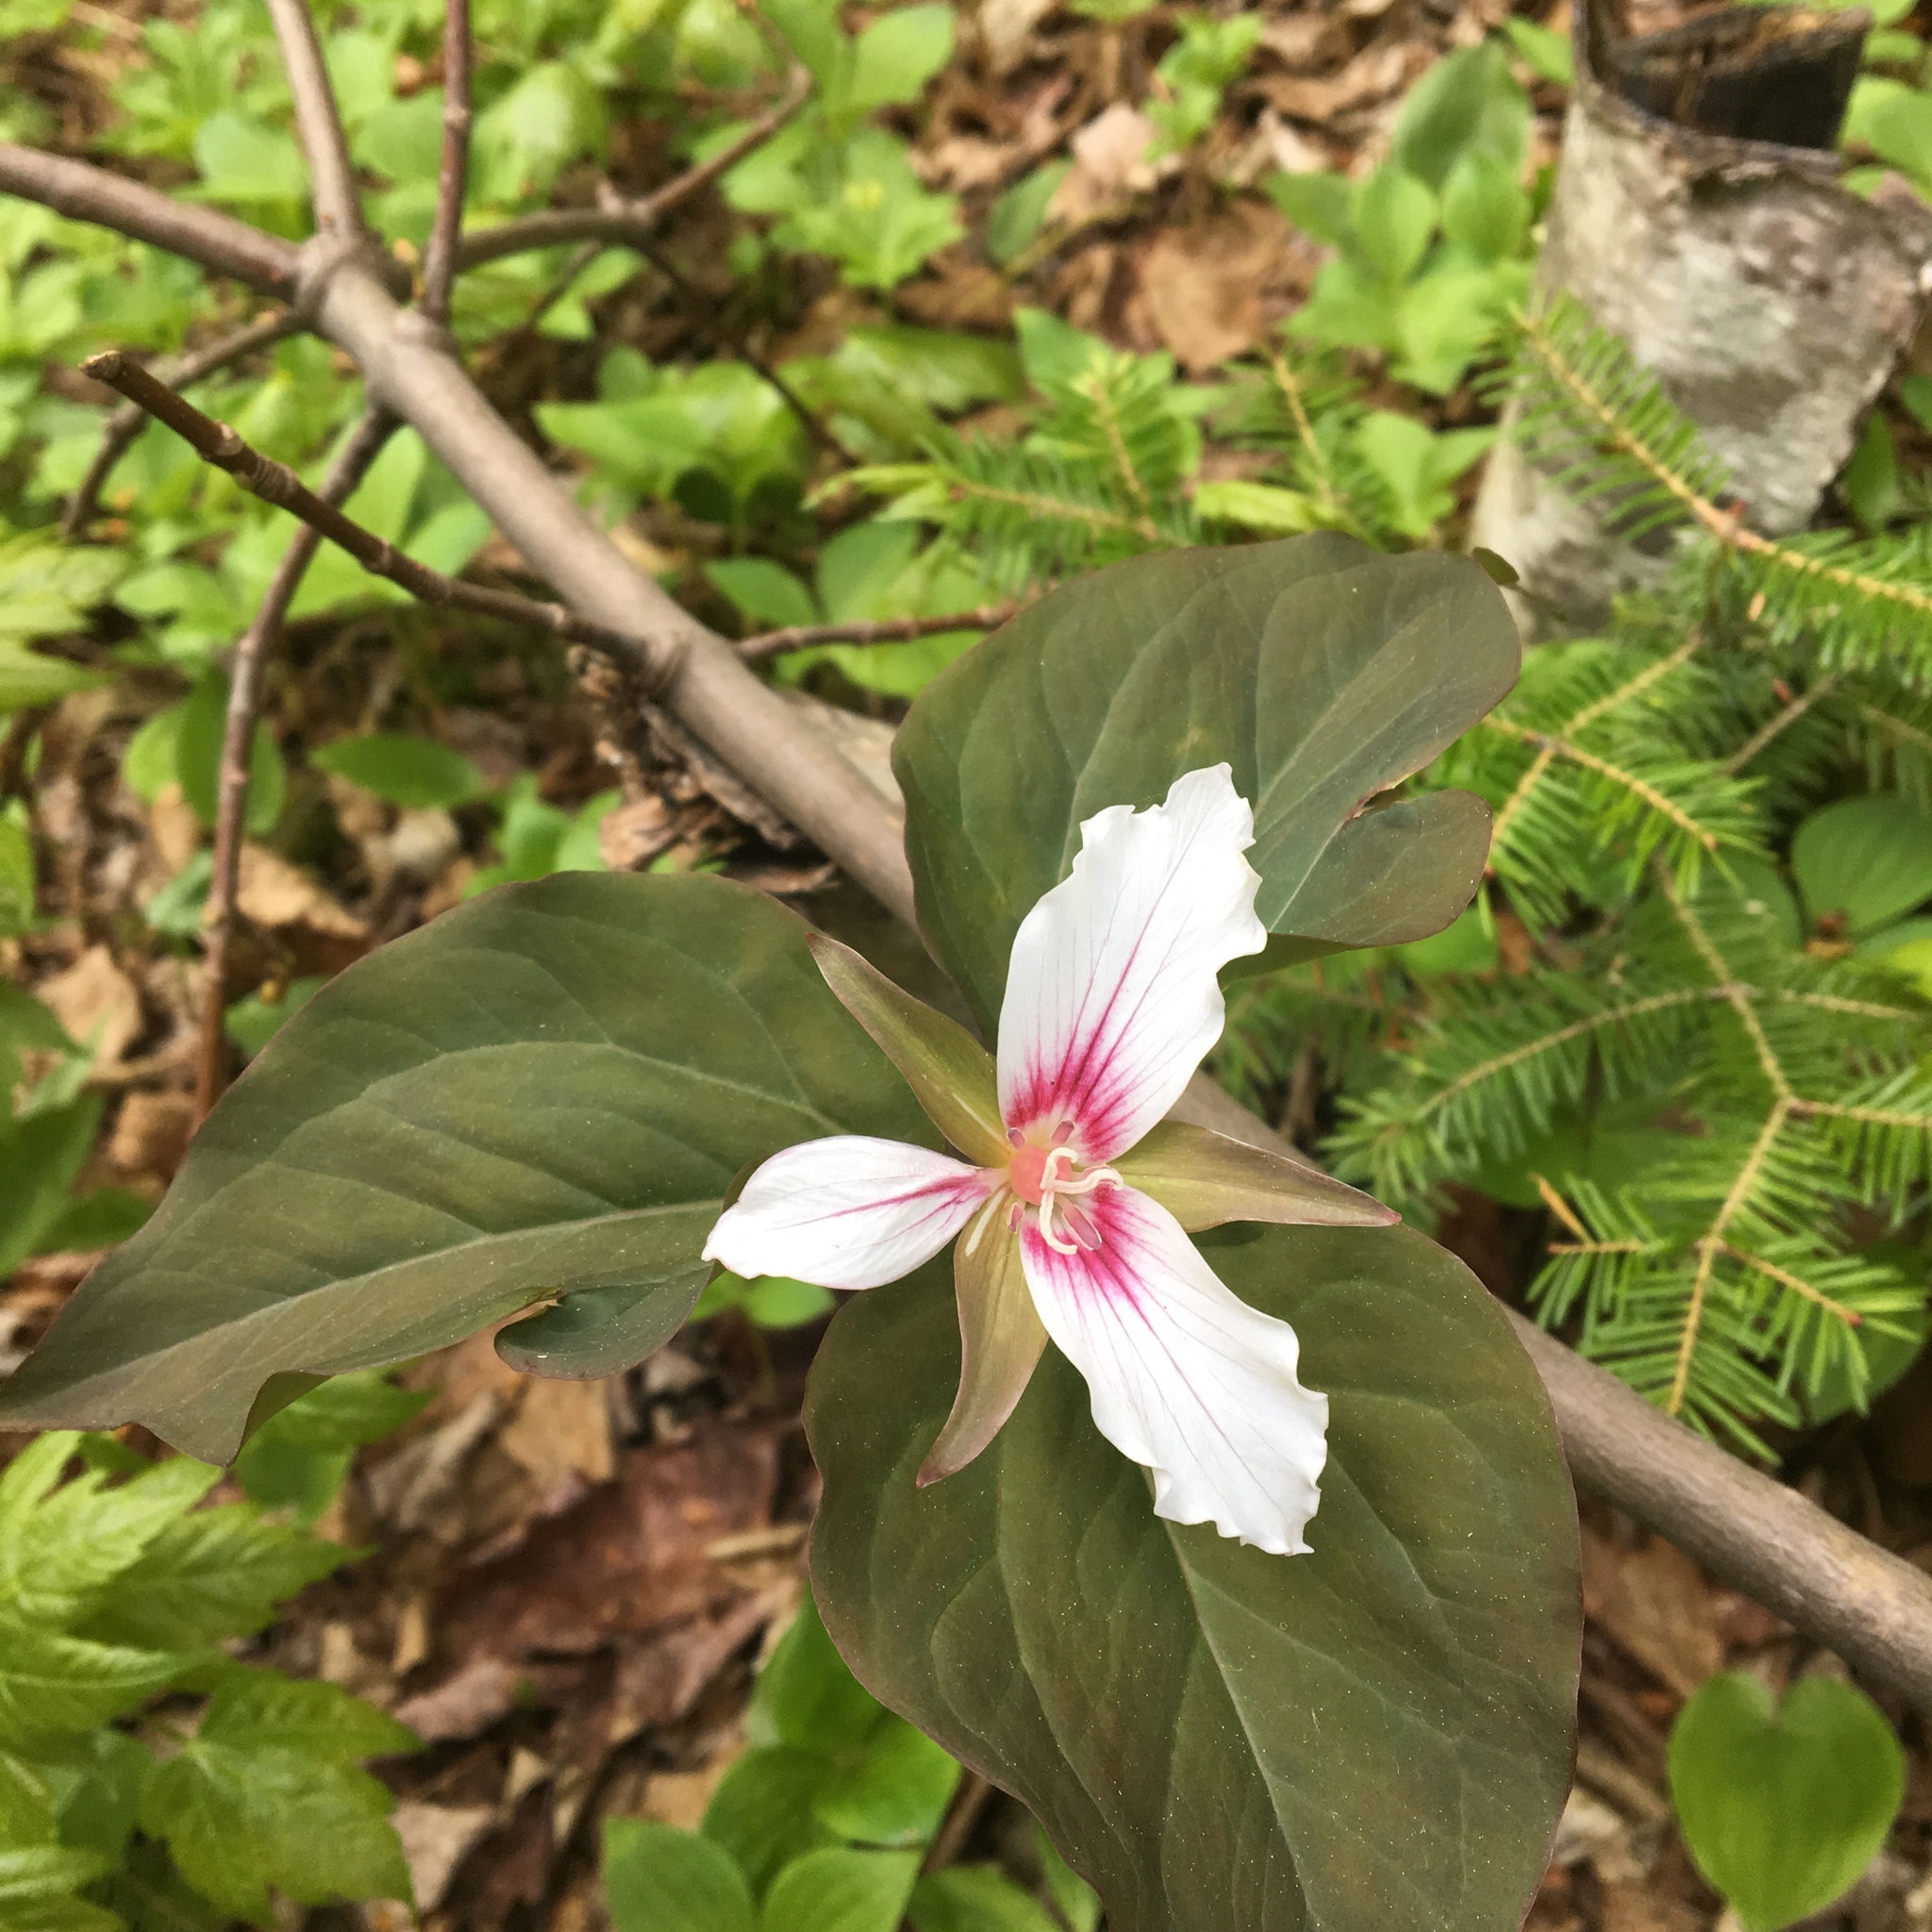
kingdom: Plantae
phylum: Tracheophyta
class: Liliopsida
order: Liliales
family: Melanthiaceae
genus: Trillium
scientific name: Trillium undulatum
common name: Paint trillium
